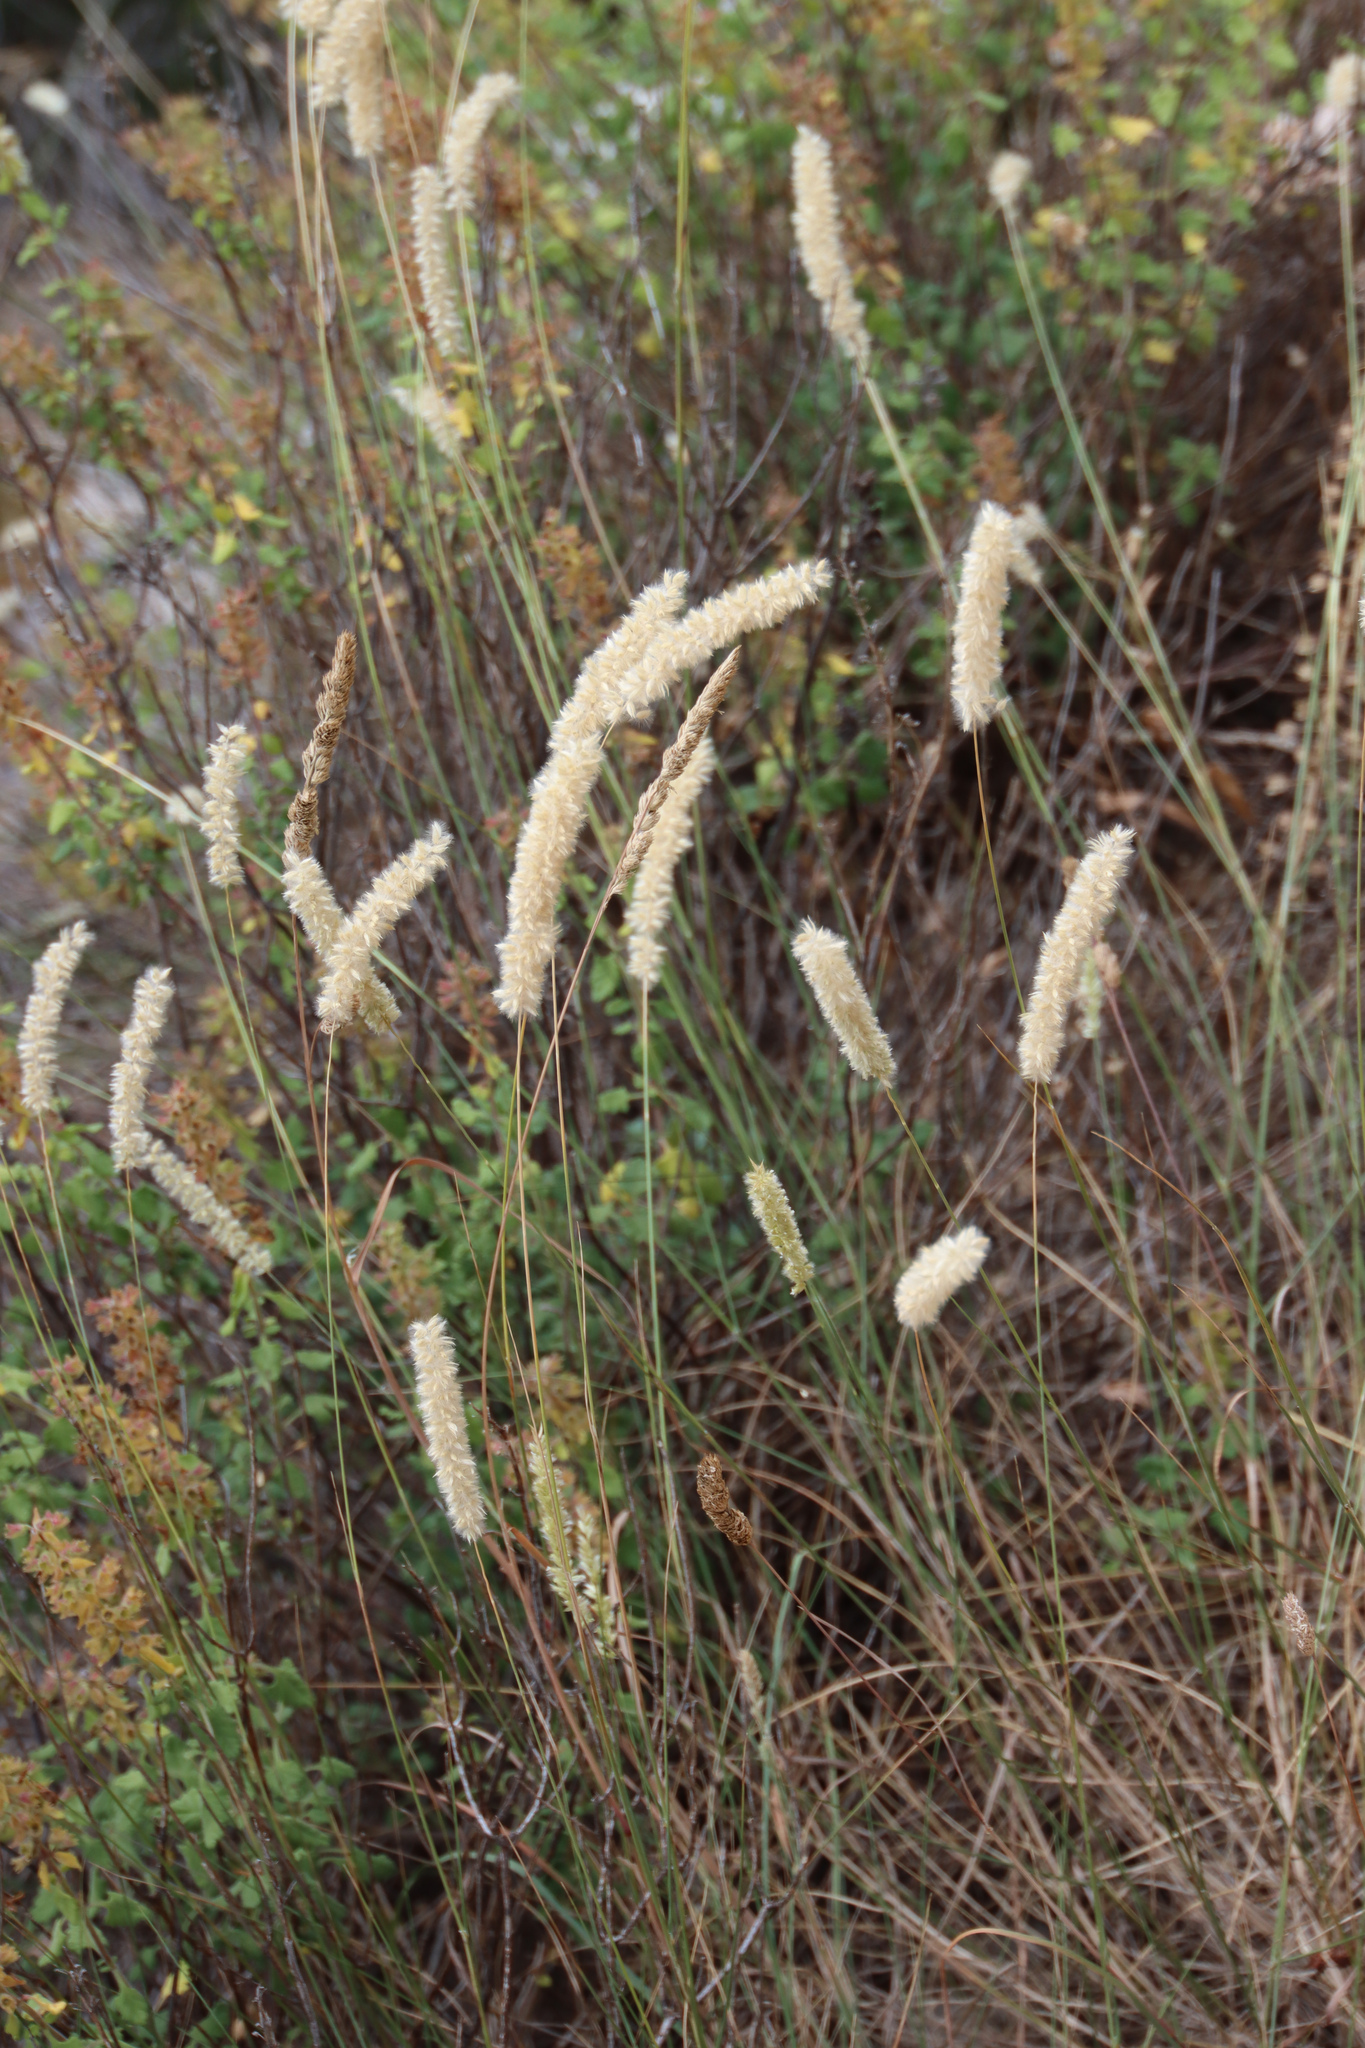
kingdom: Plantae
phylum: Tracheophyta
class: Liliopsida
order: Poales
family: Poaceae
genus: Melica
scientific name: Melica ciliata
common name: Hairy melicgrass
